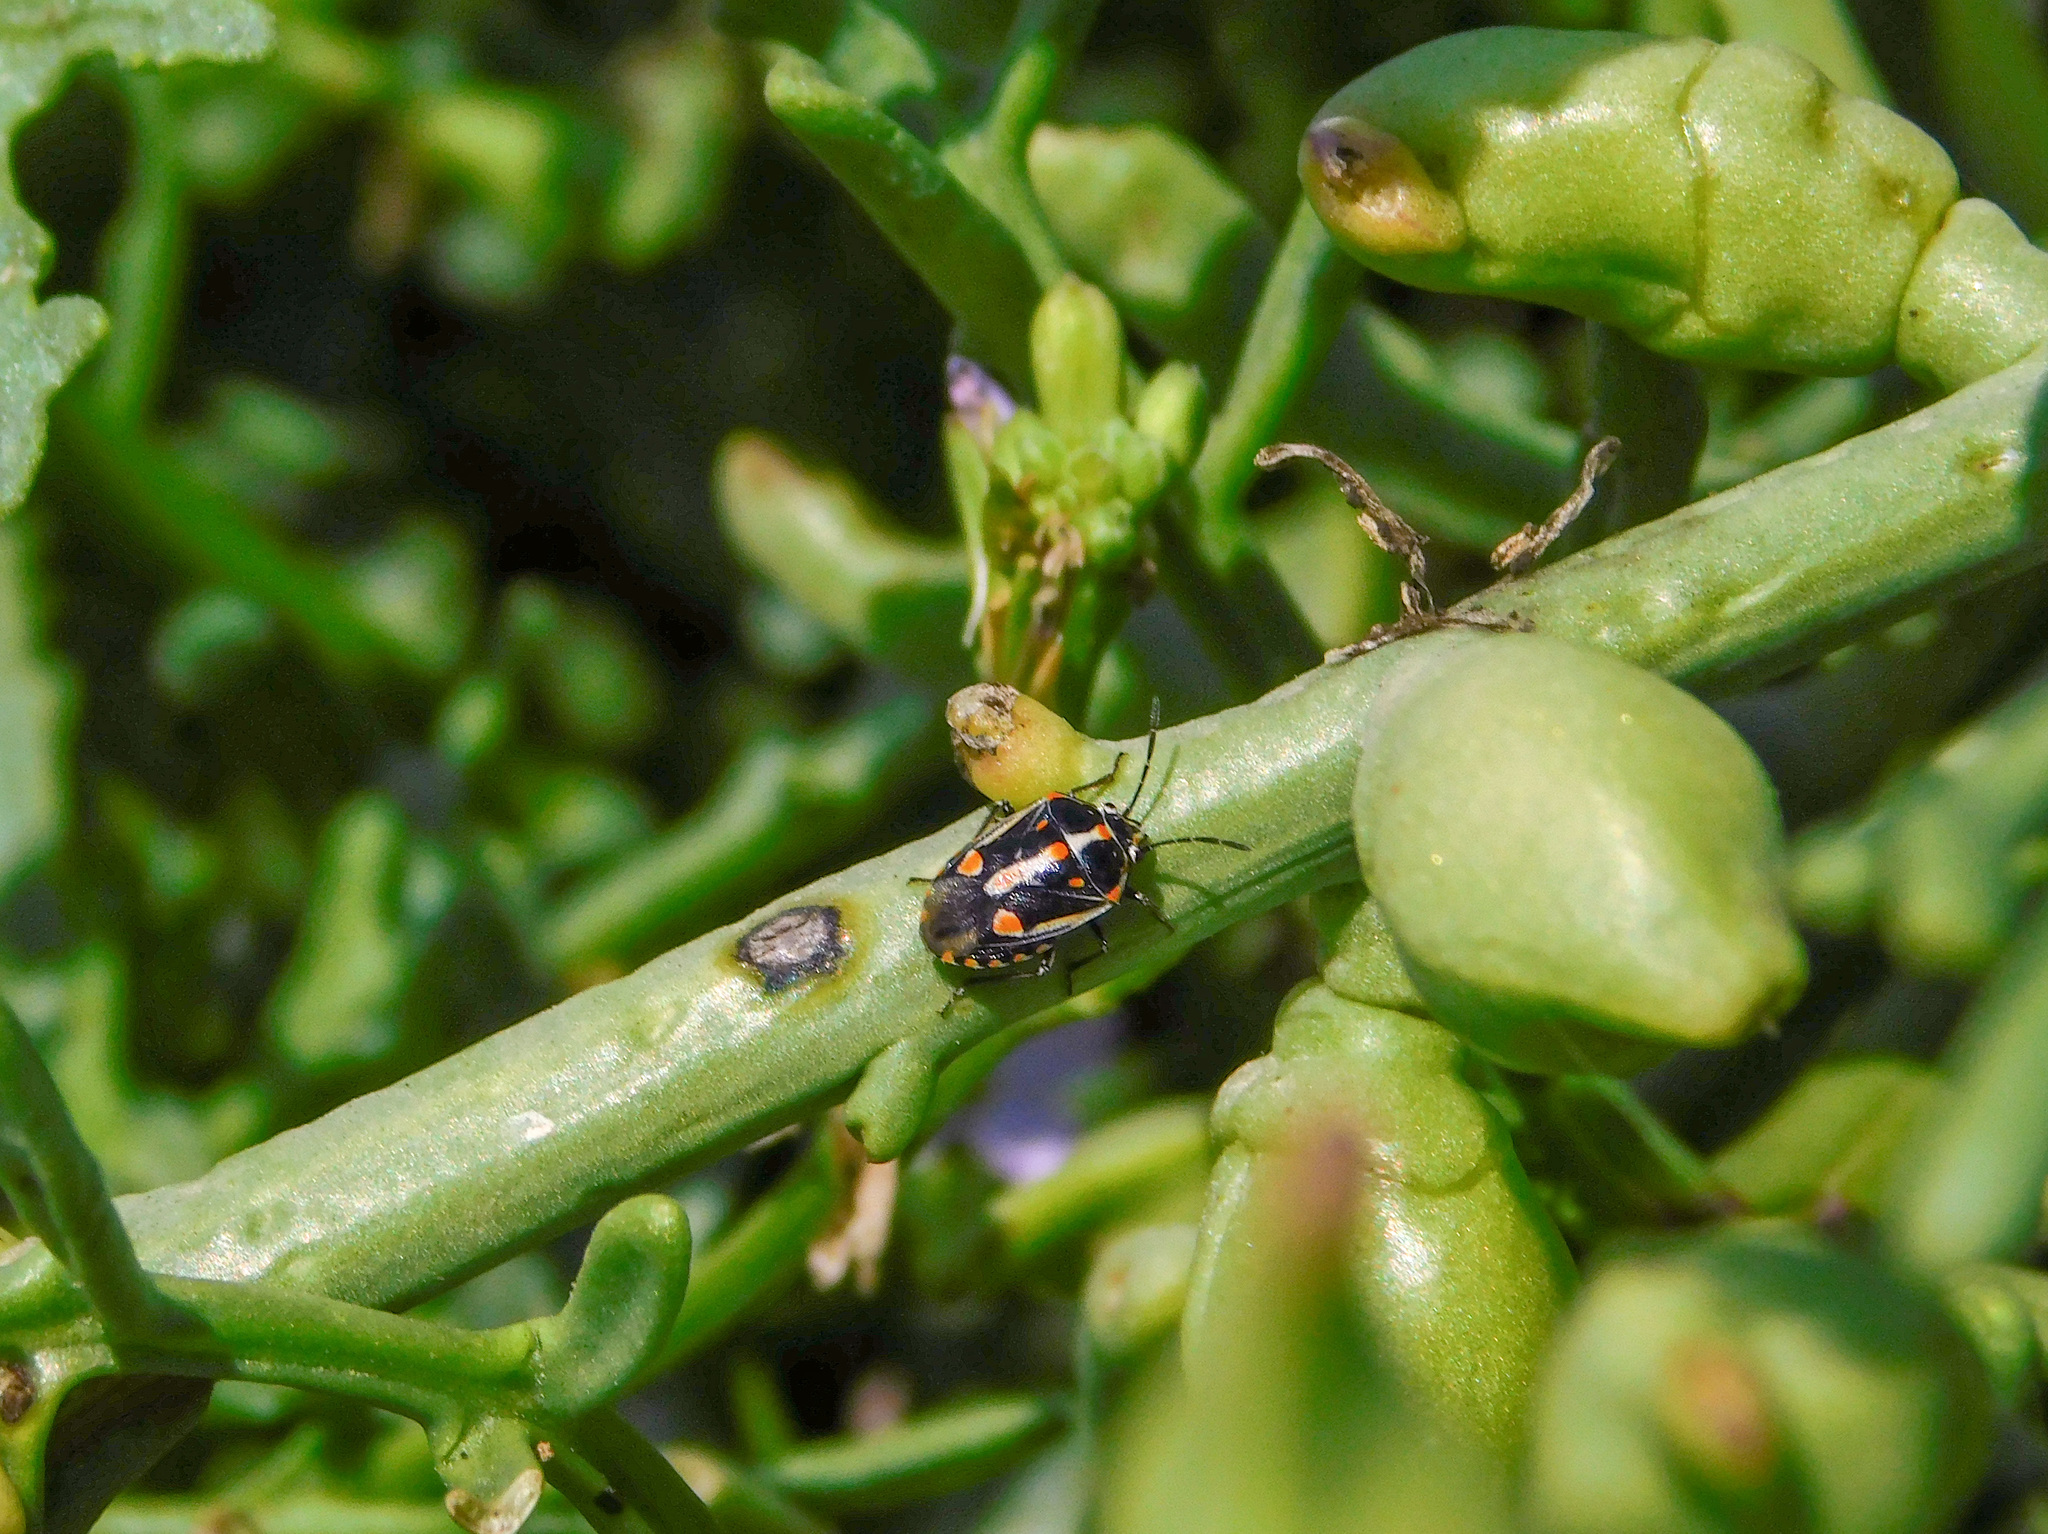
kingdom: Animalia
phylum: Arthropoda
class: Insecta
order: Hemiptera
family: Pentatomidae
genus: Bagrada
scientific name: Bagrada hilaris
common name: Bagrada bug
